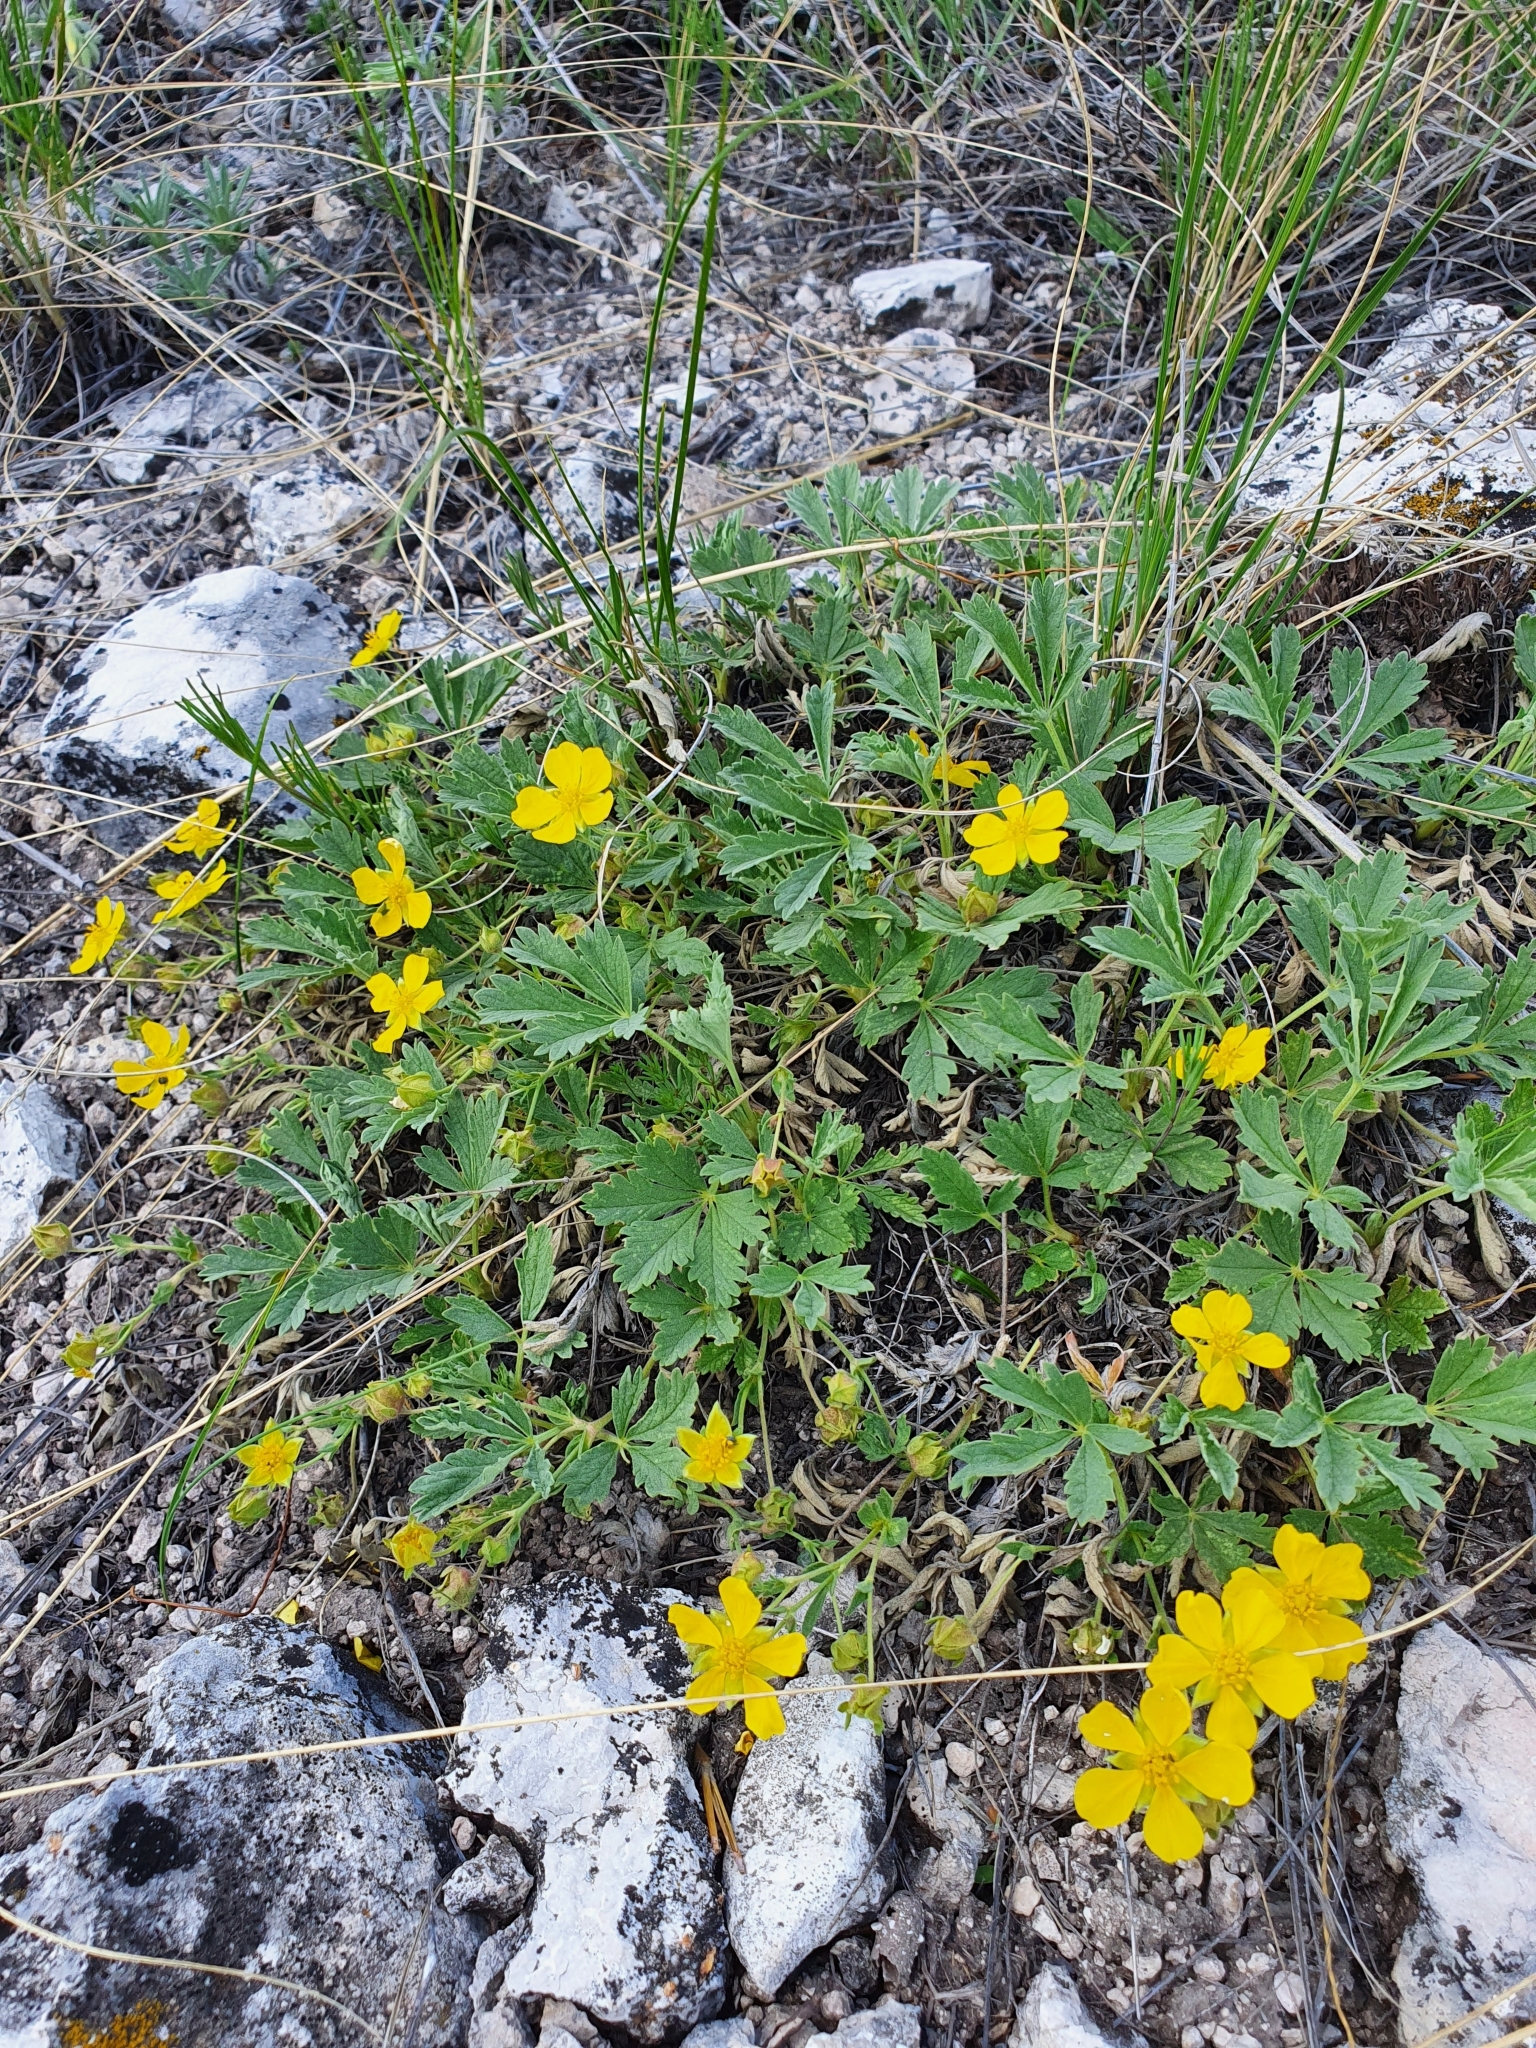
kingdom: Plantae
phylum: Tracheophyta
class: Magnoliopsida
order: Rosales
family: Rosaceae
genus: Potentilla
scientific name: Potentilla incana
